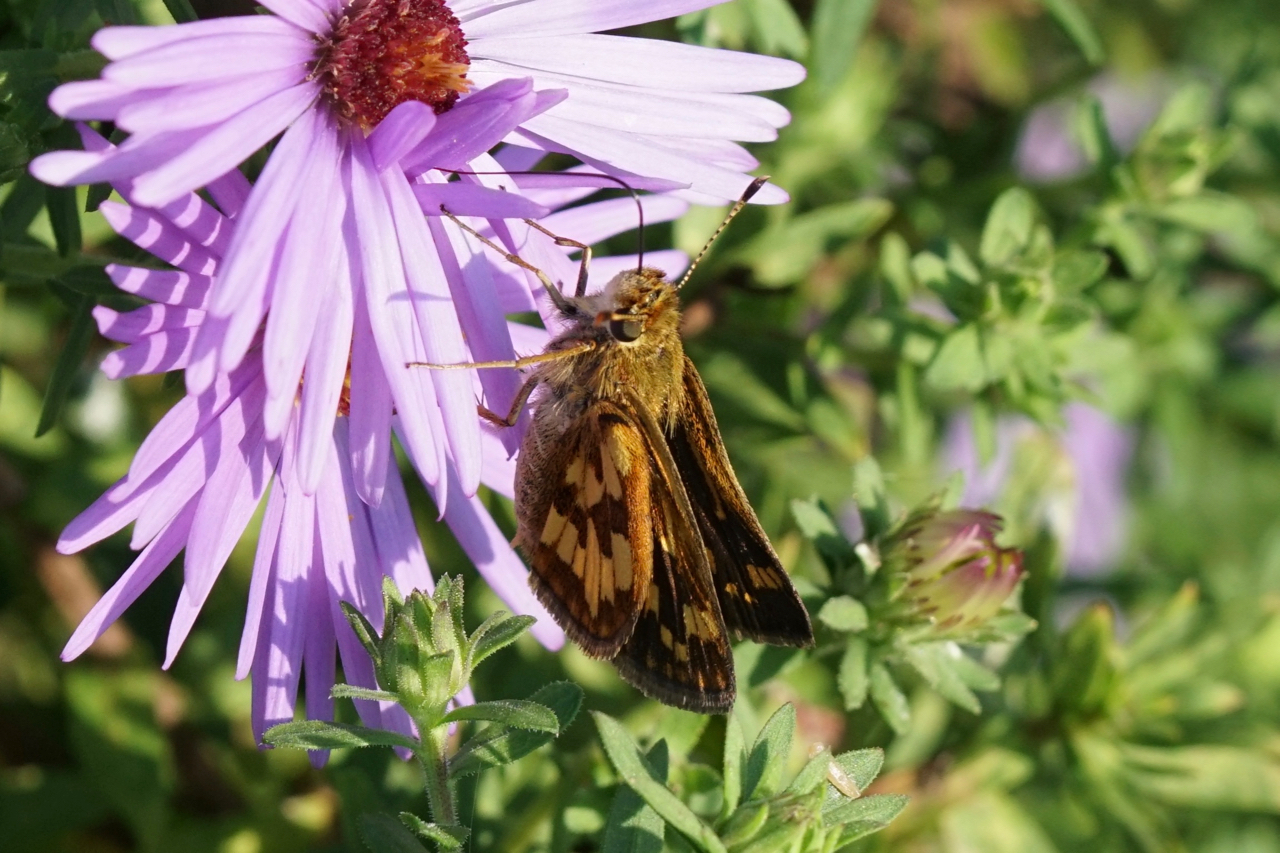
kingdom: Animalia
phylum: Arthropoda
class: Insecta
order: Lepidoptera
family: Hesperiidae
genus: Polites
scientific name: Polites coras
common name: Peck's skipper
